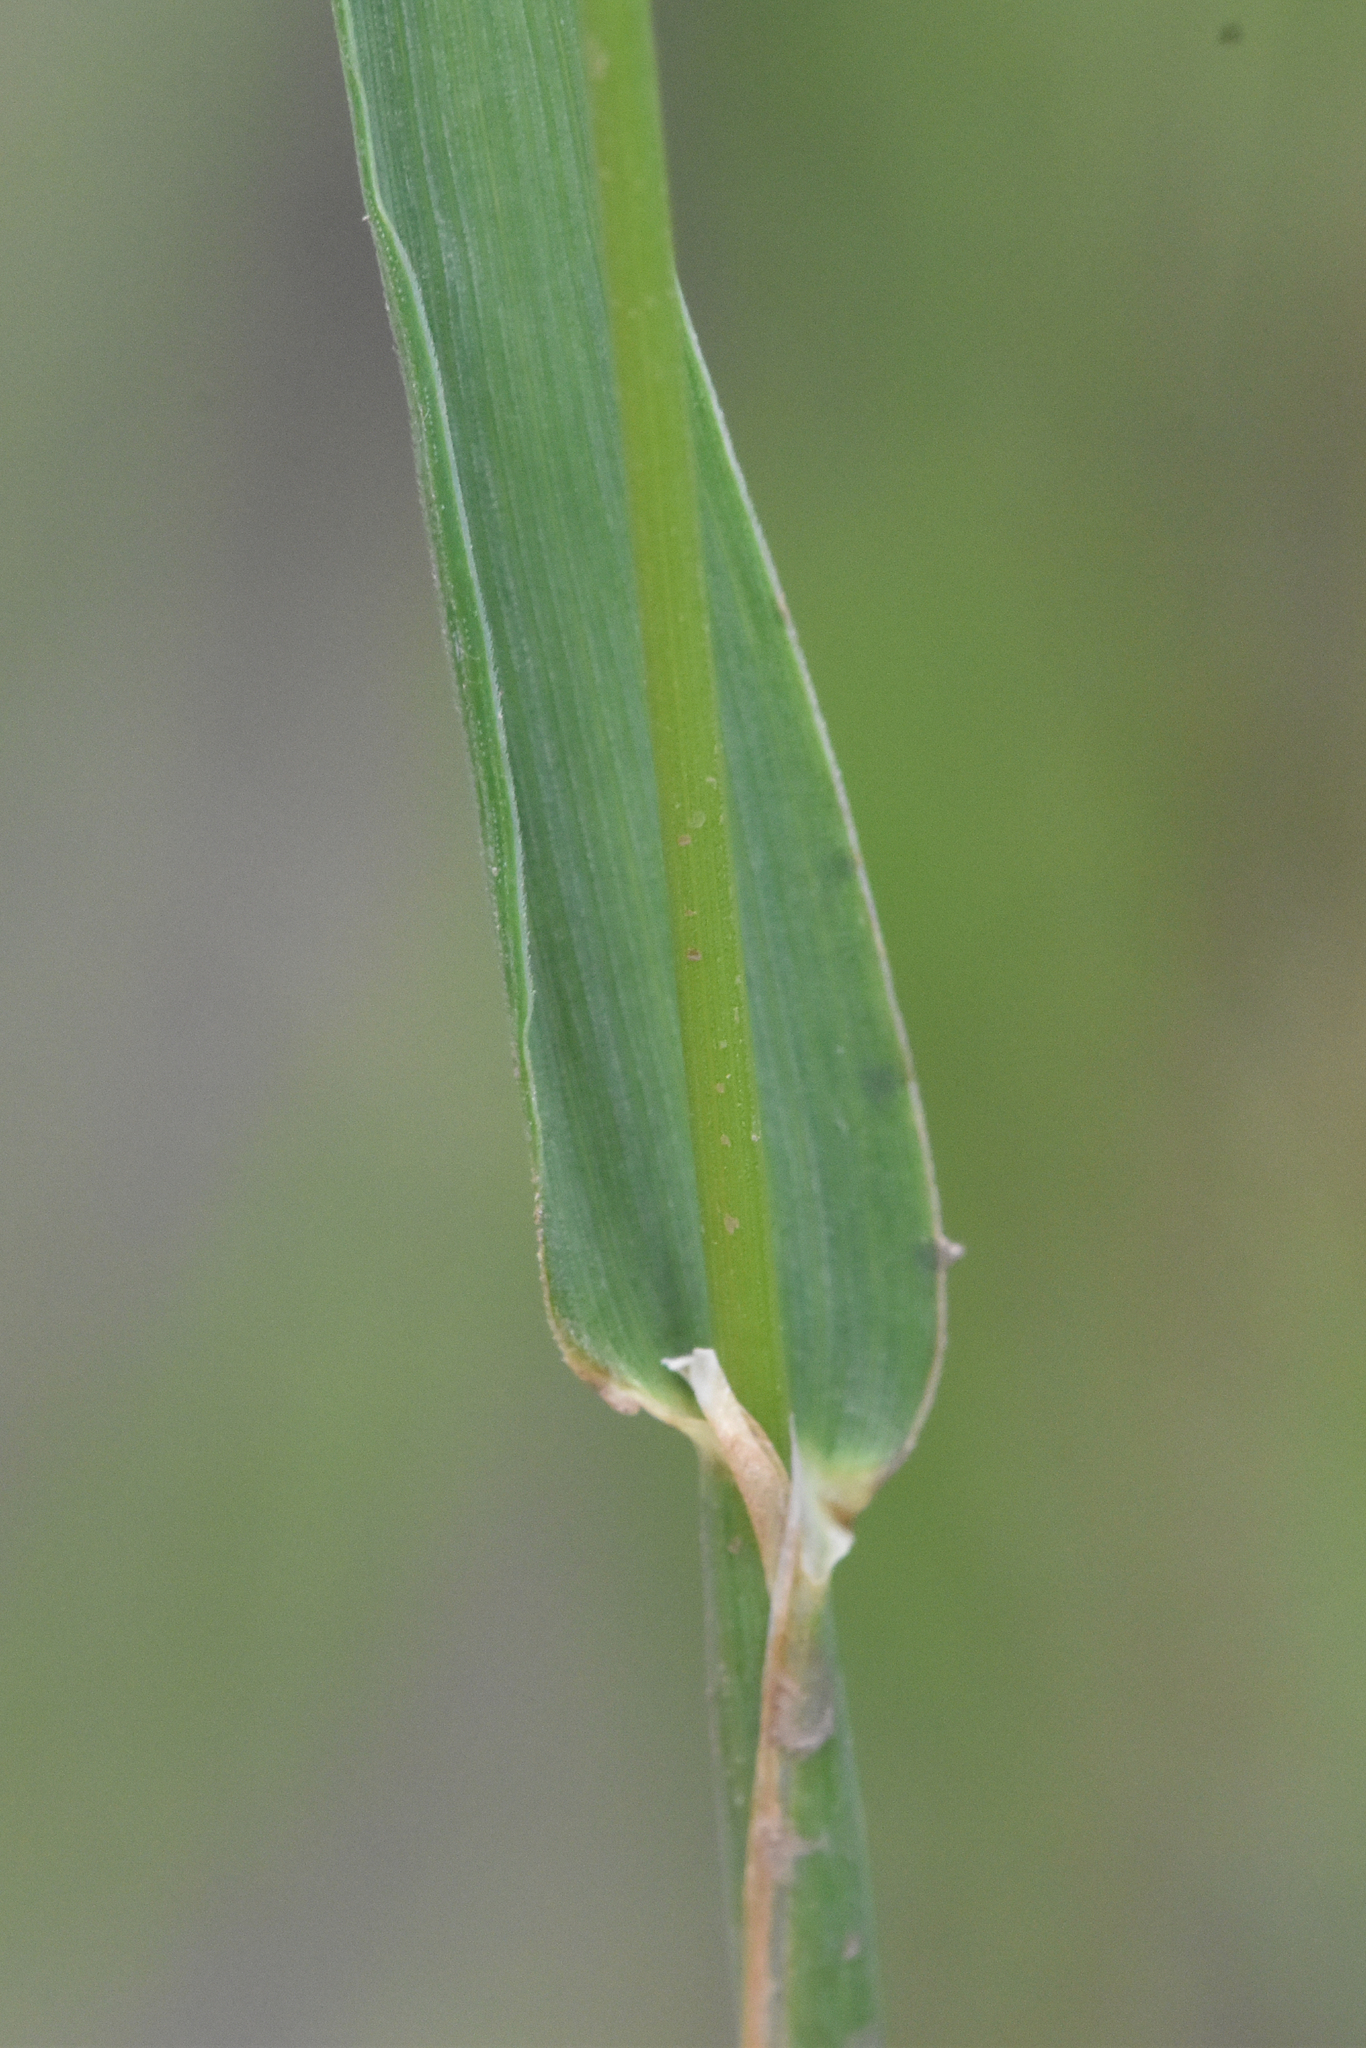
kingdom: Plantae
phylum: Tracheophyta
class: Liliopsida
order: Poales
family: Poaceae
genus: Phleum
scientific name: Phleum pratense
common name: Timothy grass
